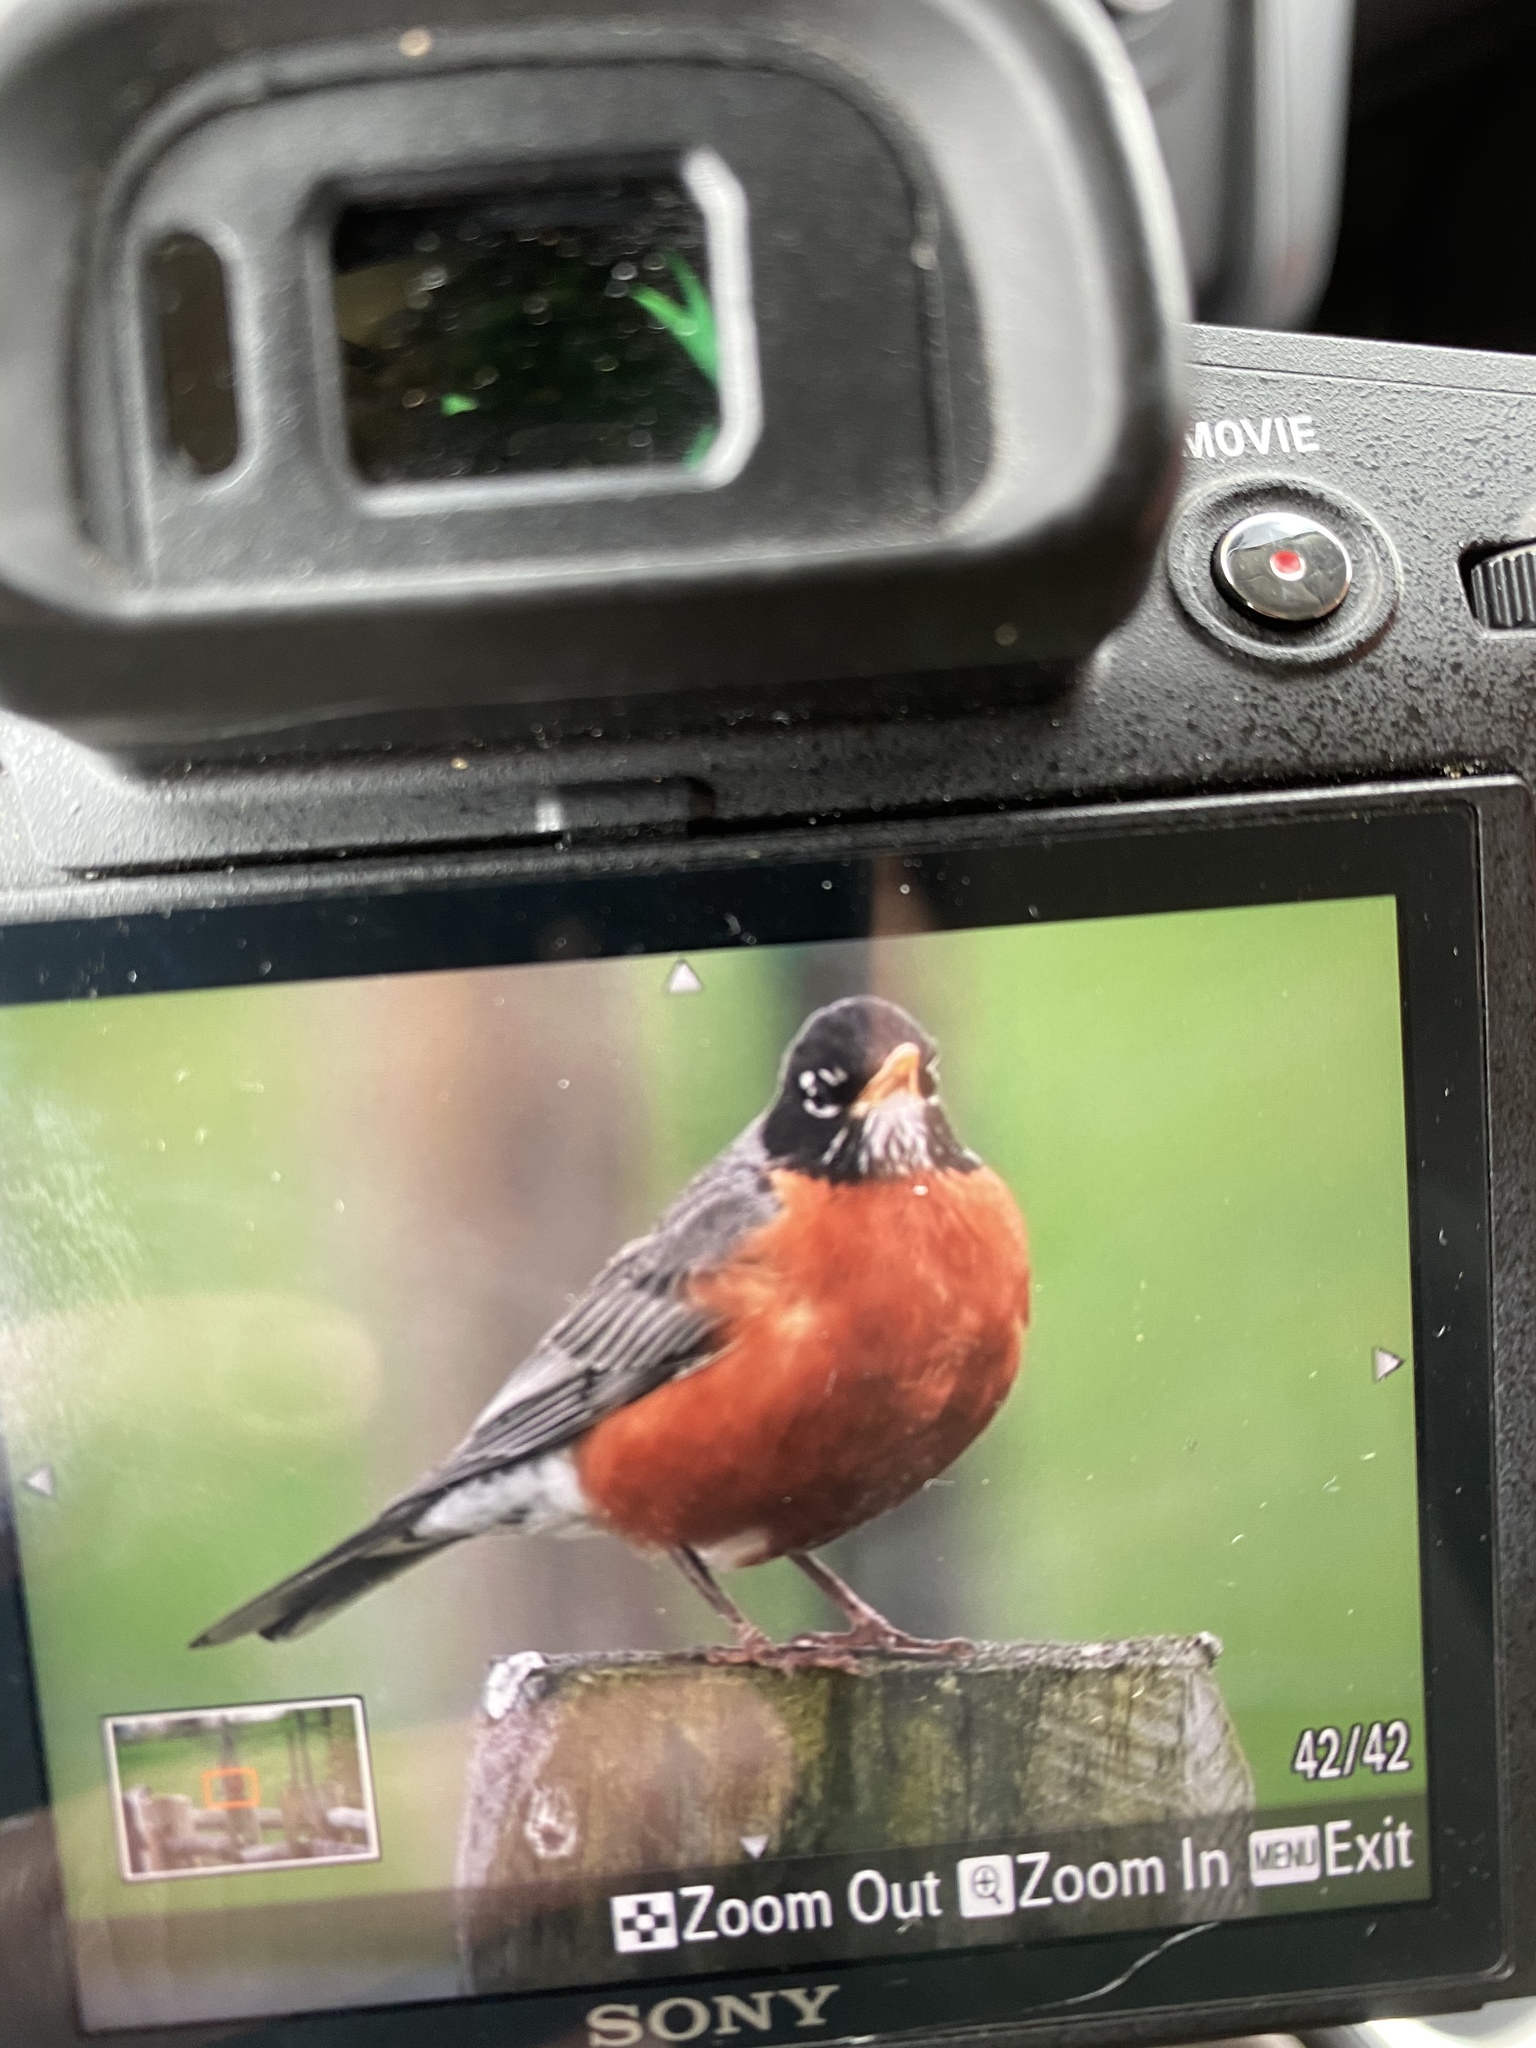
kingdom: Animalia
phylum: Chordata
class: Aves
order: Passeriformes
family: Turdidae
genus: Turdus
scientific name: Turdus migratorius
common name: American robin
